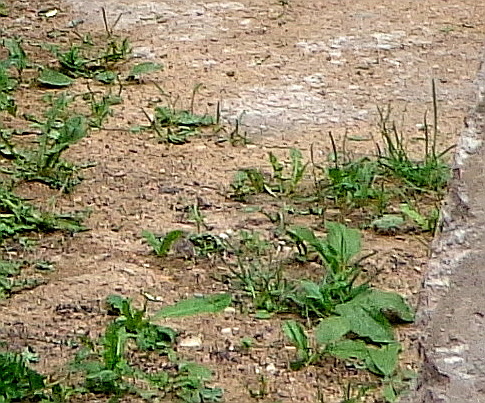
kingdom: Plantae
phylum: Tracheophyta
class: Magnoliopsida
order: Lamiales
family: Plantaginaceae
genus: Plantago
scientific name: Plantago major
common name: Common plantain
